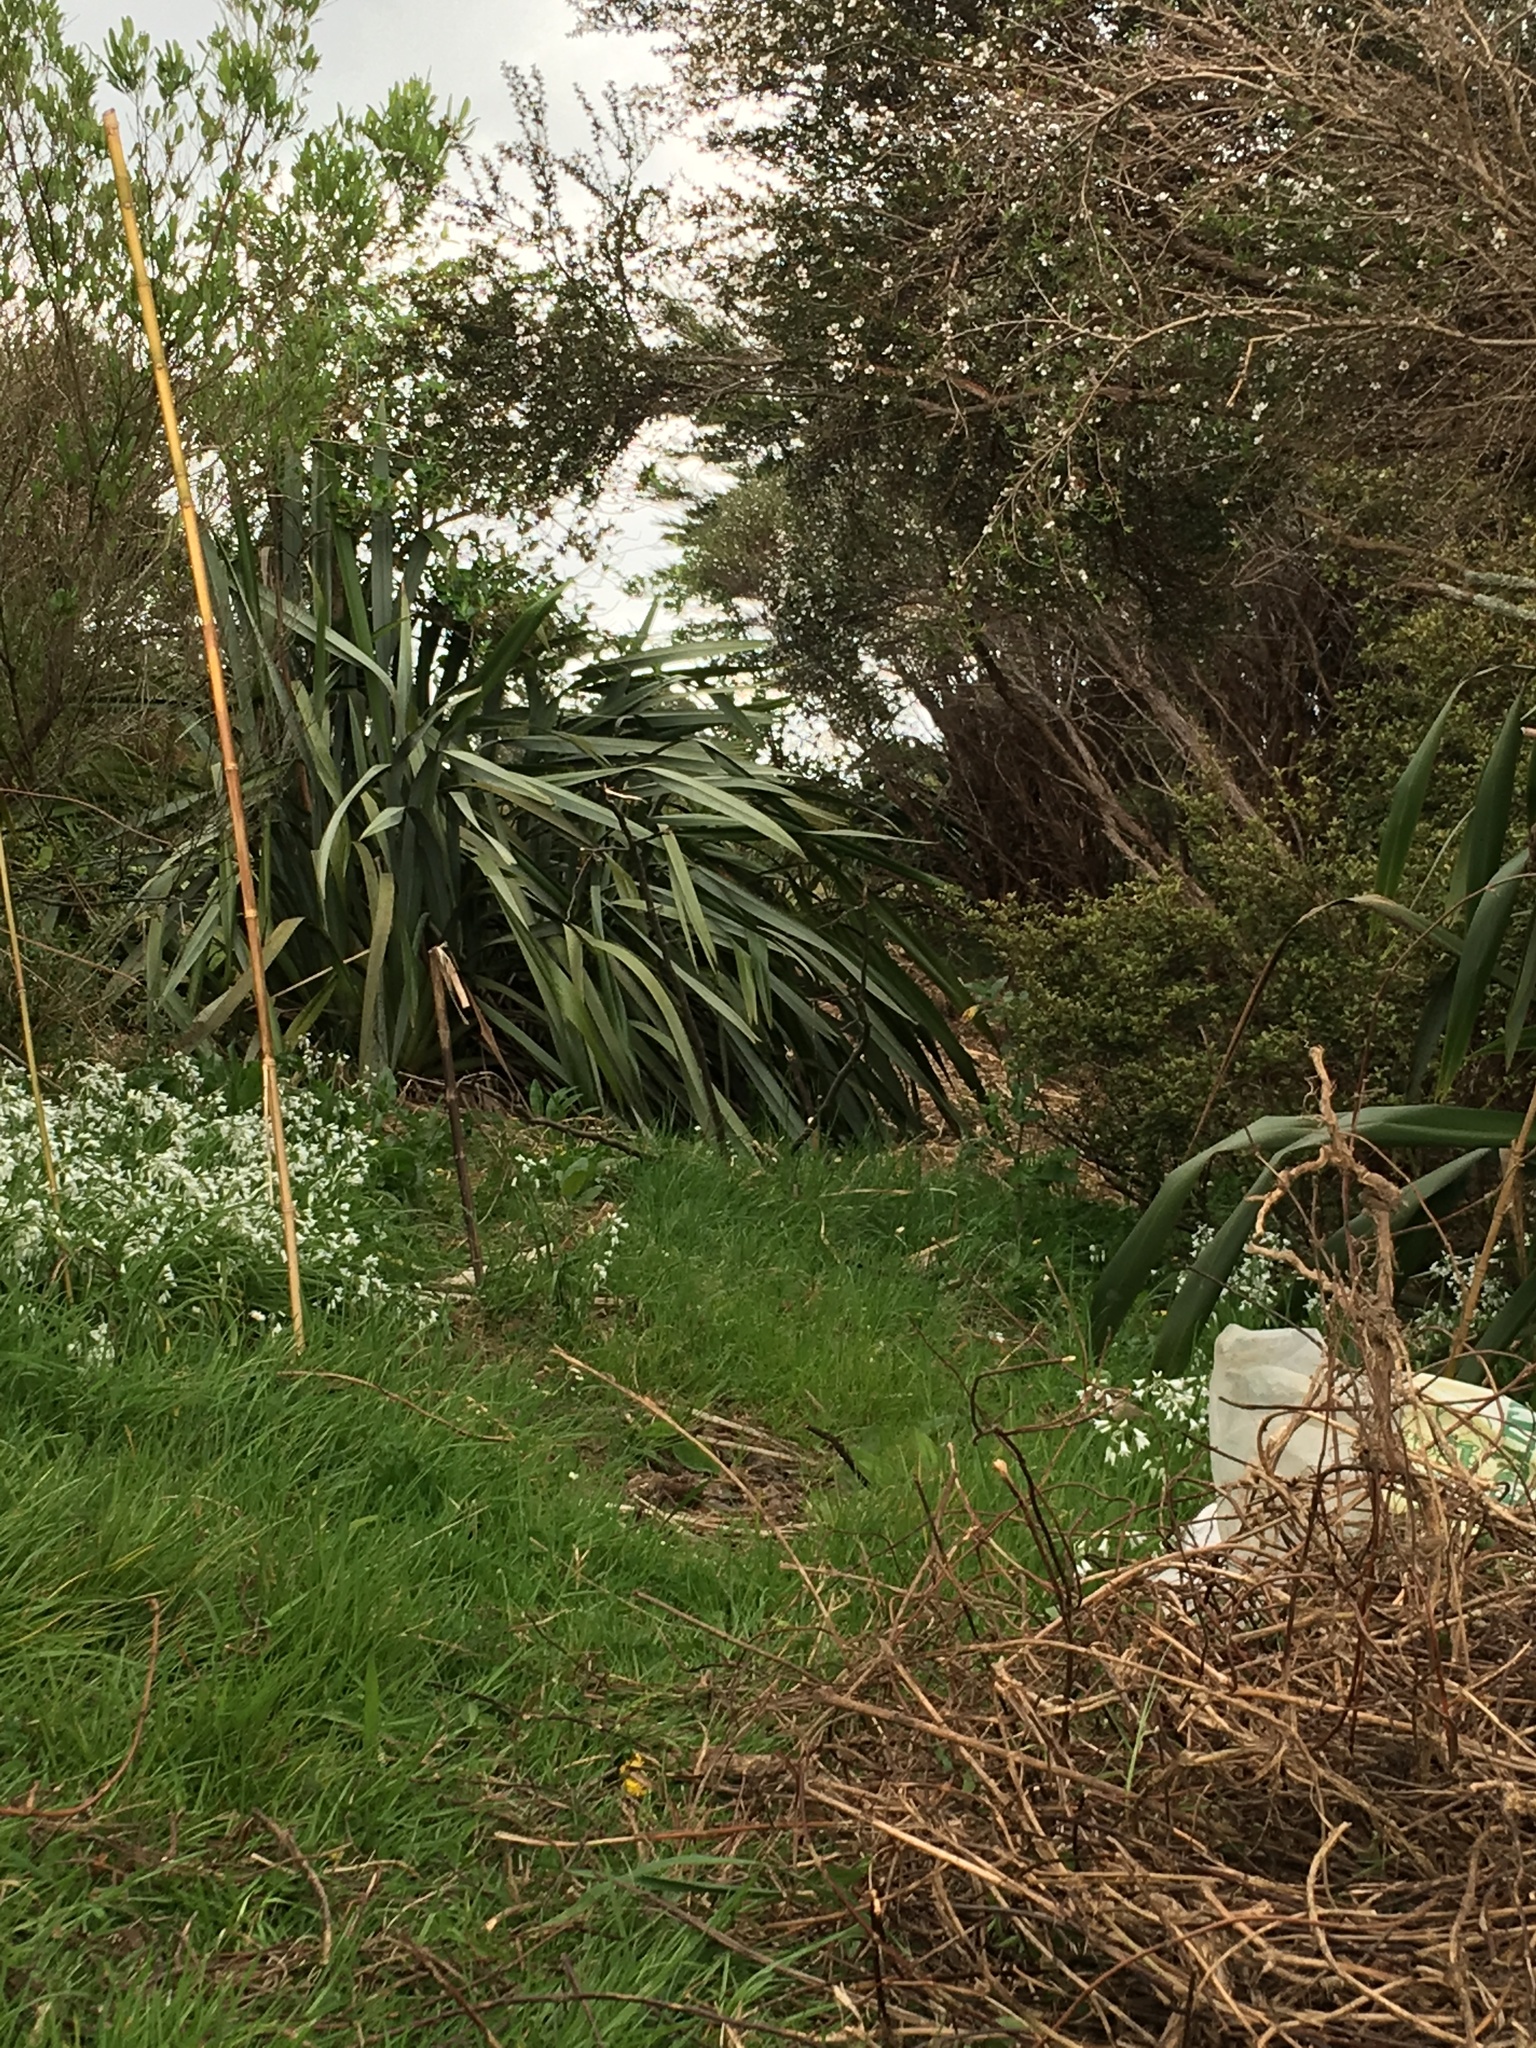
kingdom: Plantae
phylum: Tracheophyta
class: Magnoliopsida
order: Myrtales
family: Myrtaceae
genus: Leptospermum
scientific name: Leptospermum scoparium
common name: Broom tea-tree
